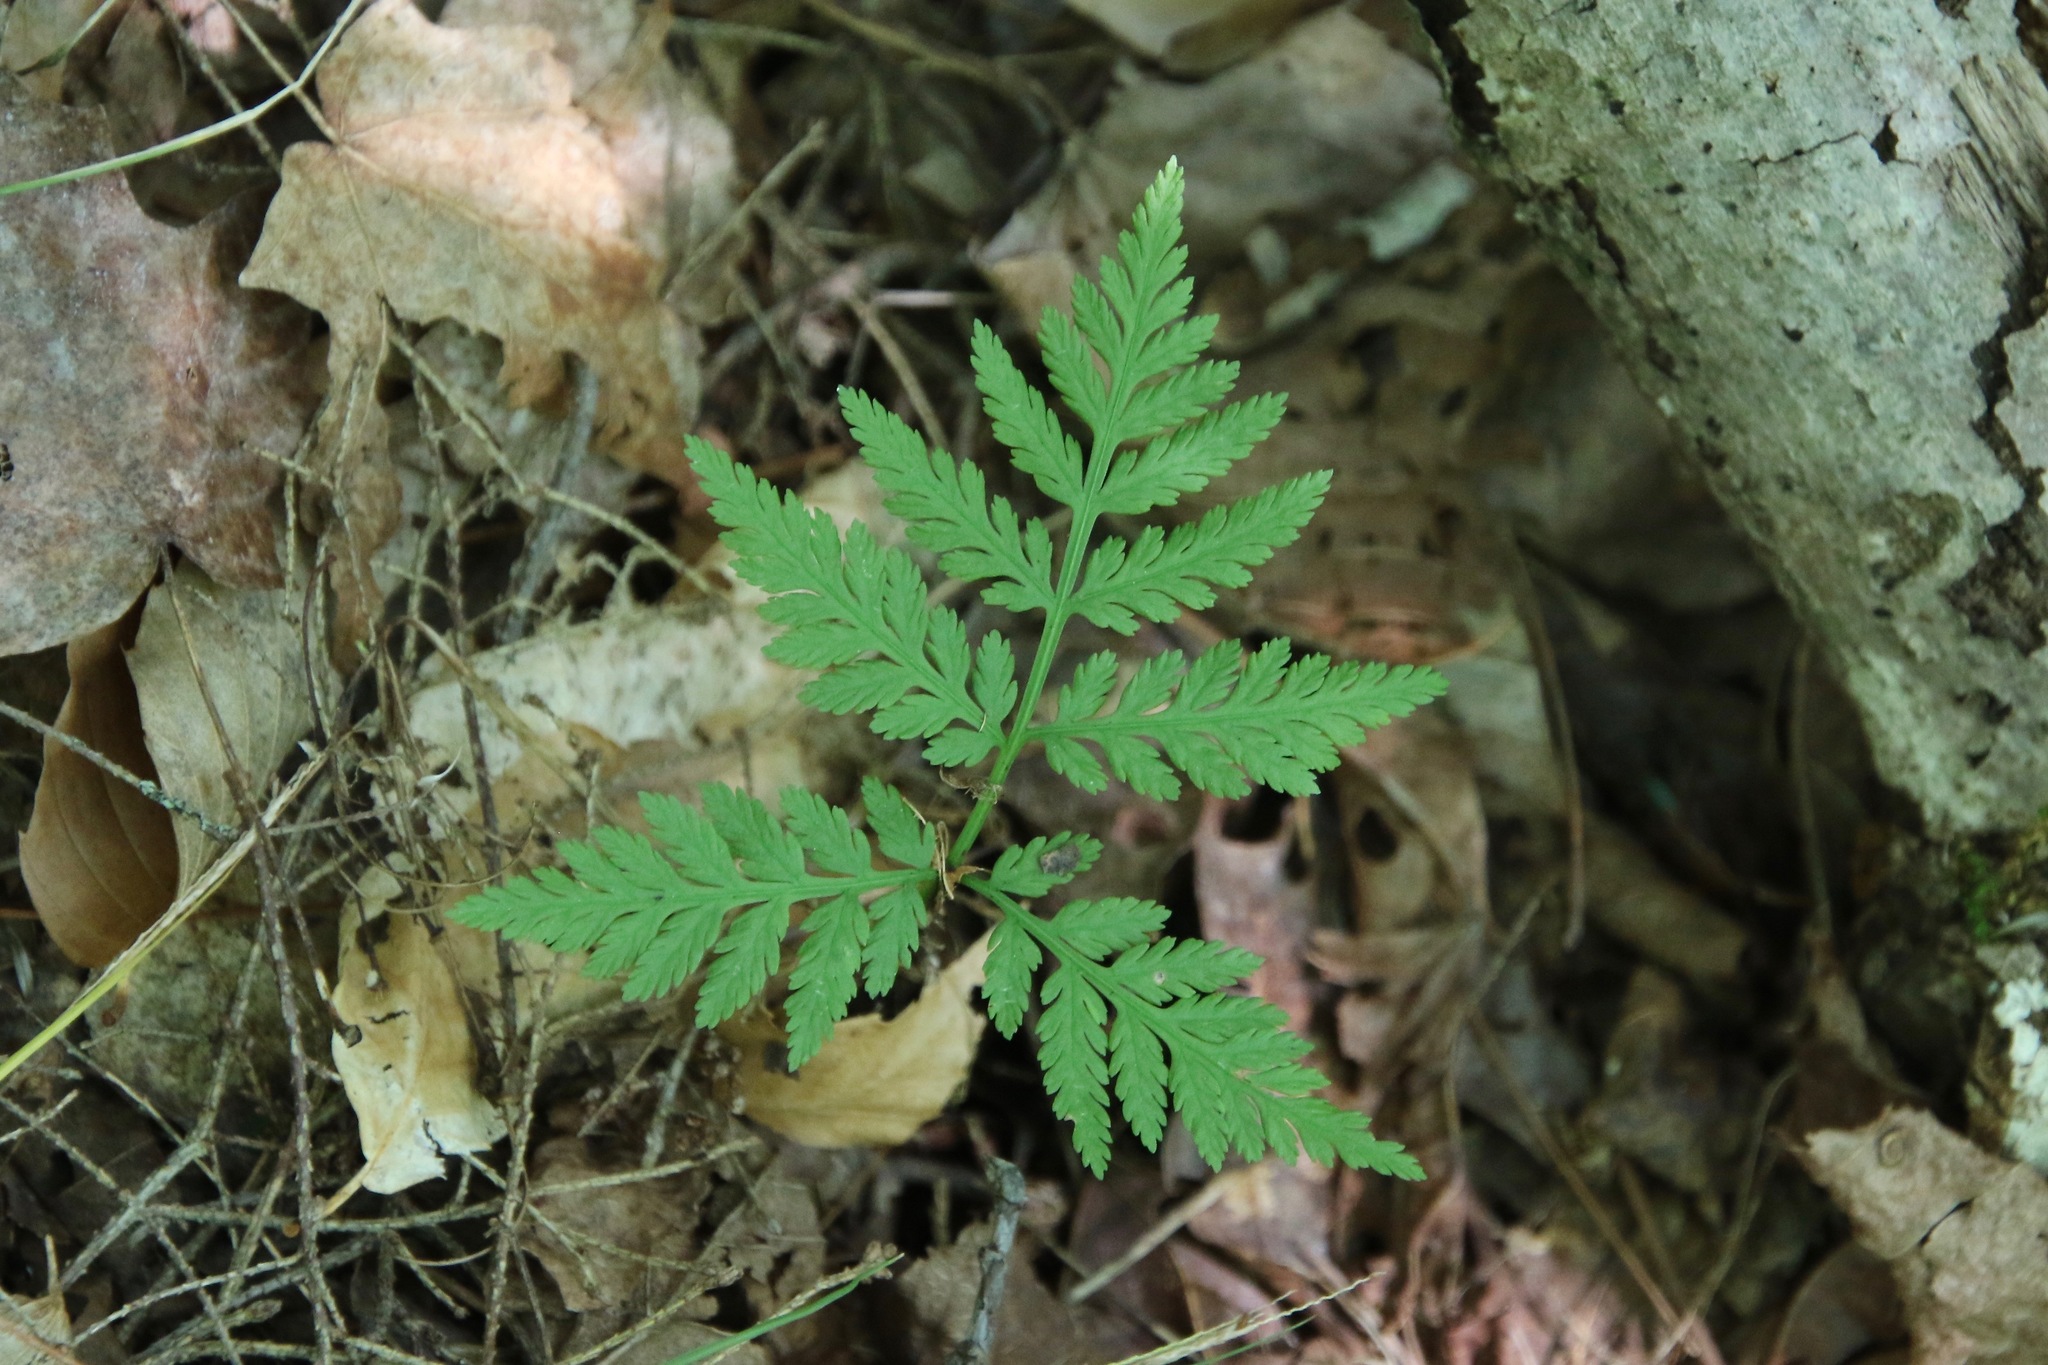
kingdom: Plantae
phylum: Tracheophyta
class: Polypodiopsida
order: Ophioglossales
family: Ophioglossaceae
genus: Botrypus
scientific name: Botrypus virginianus
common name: Common grapefern
